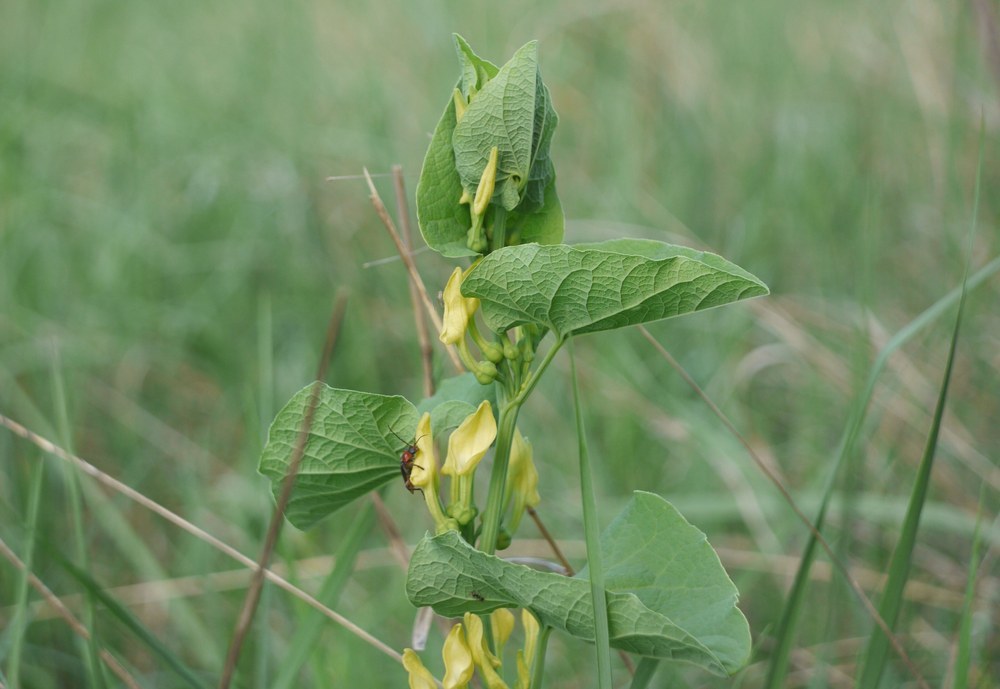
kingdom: Plantae
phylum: Tracheophyta
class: Magnoliopsida
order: Piperales
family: Aristolochiaceae
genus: Aristolochia
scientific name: Aristolochia clematitis
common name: Birthwort
